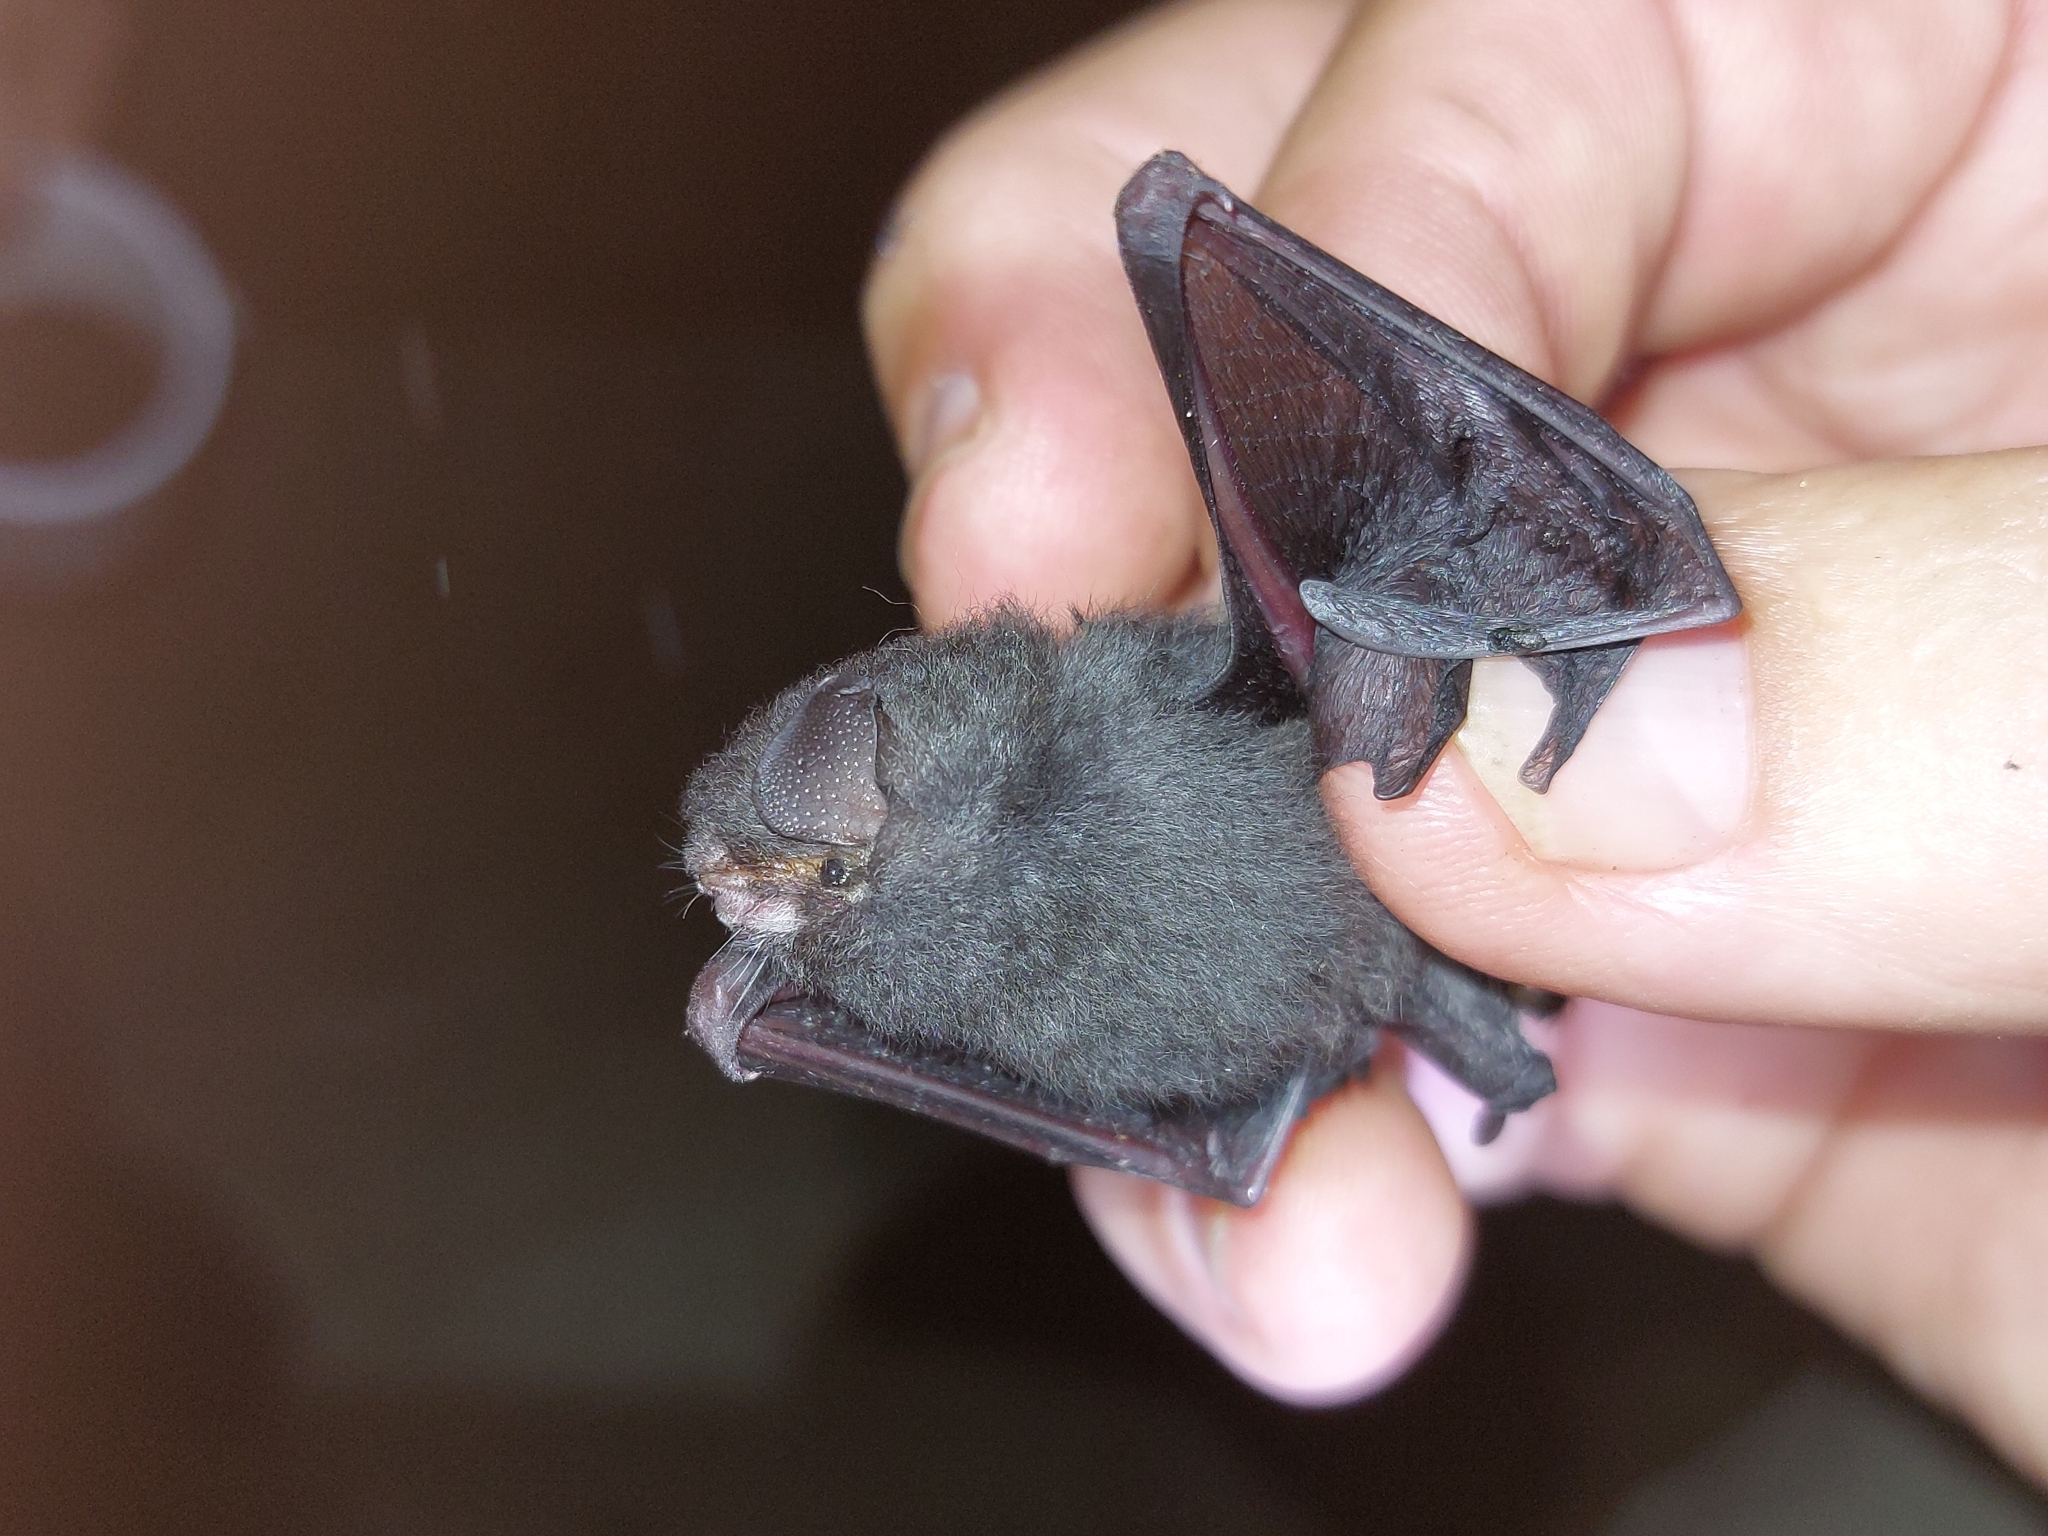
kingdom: Animalia
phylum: Chordata
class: Mammalia
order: Chiroptera
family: Furipteridae
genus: Furipterus
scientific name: Furipterus horrens
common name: Thumbless bat
